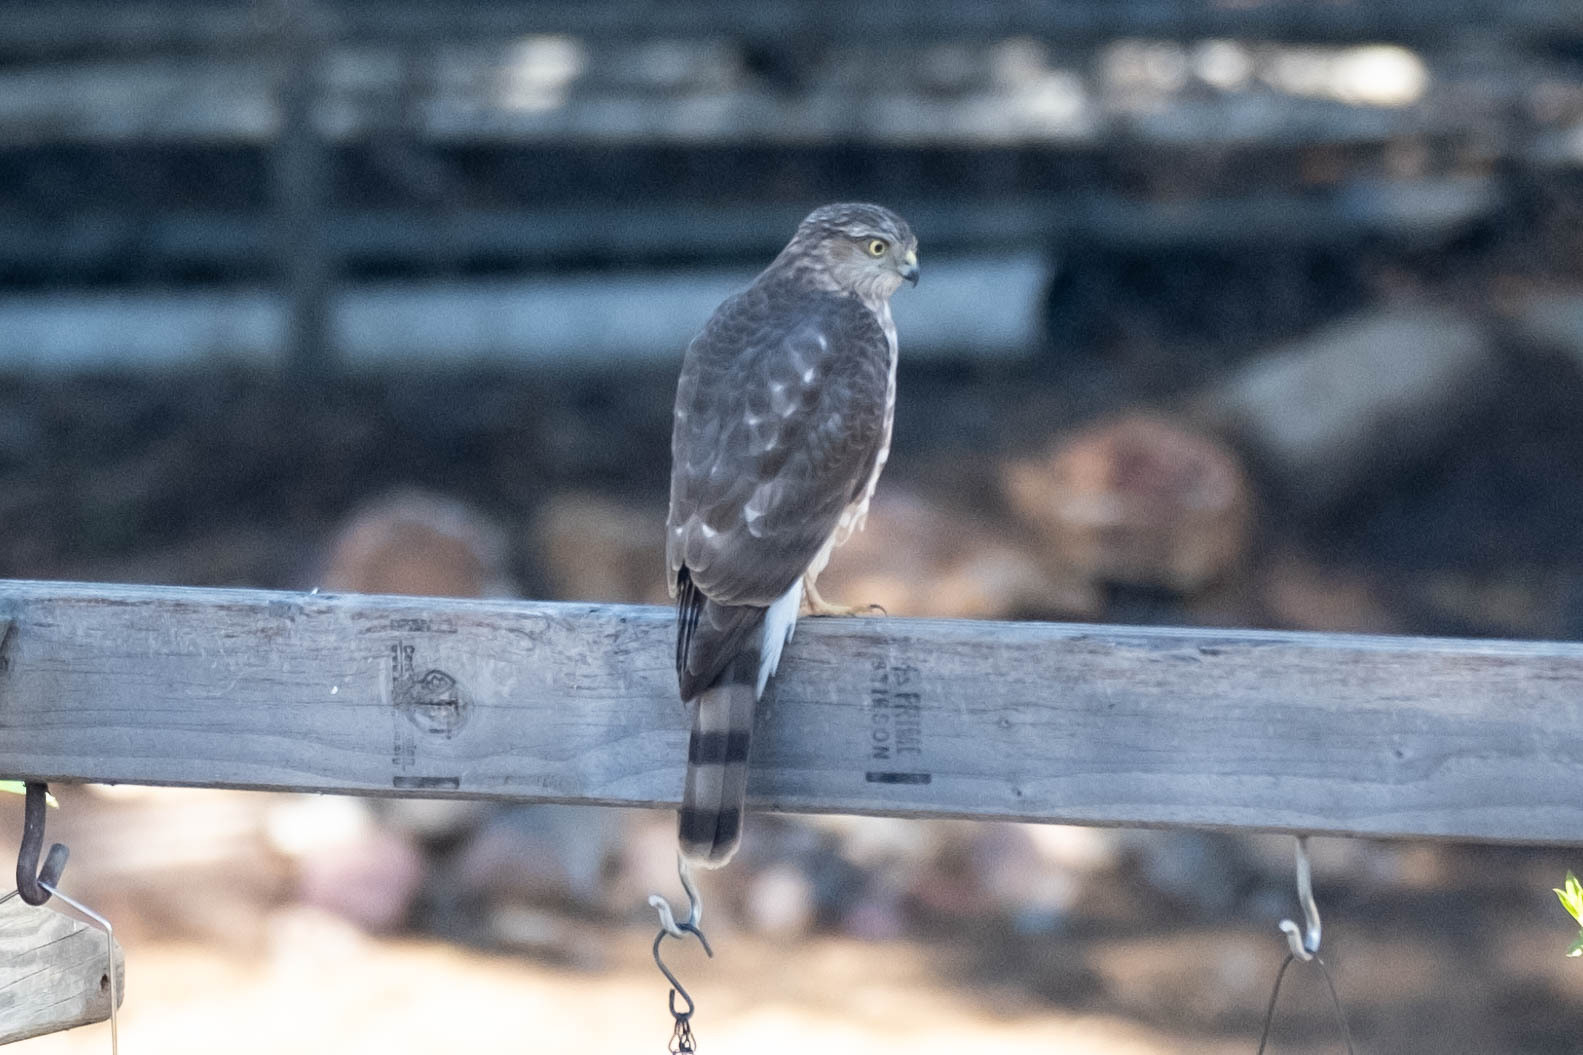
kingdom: Animalia
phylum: Chordata
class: Aves
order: Accipitriformes
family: Accipitridae
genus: Accipiter
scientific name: Accipiter striatus
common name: Sharp-shinned hawk
